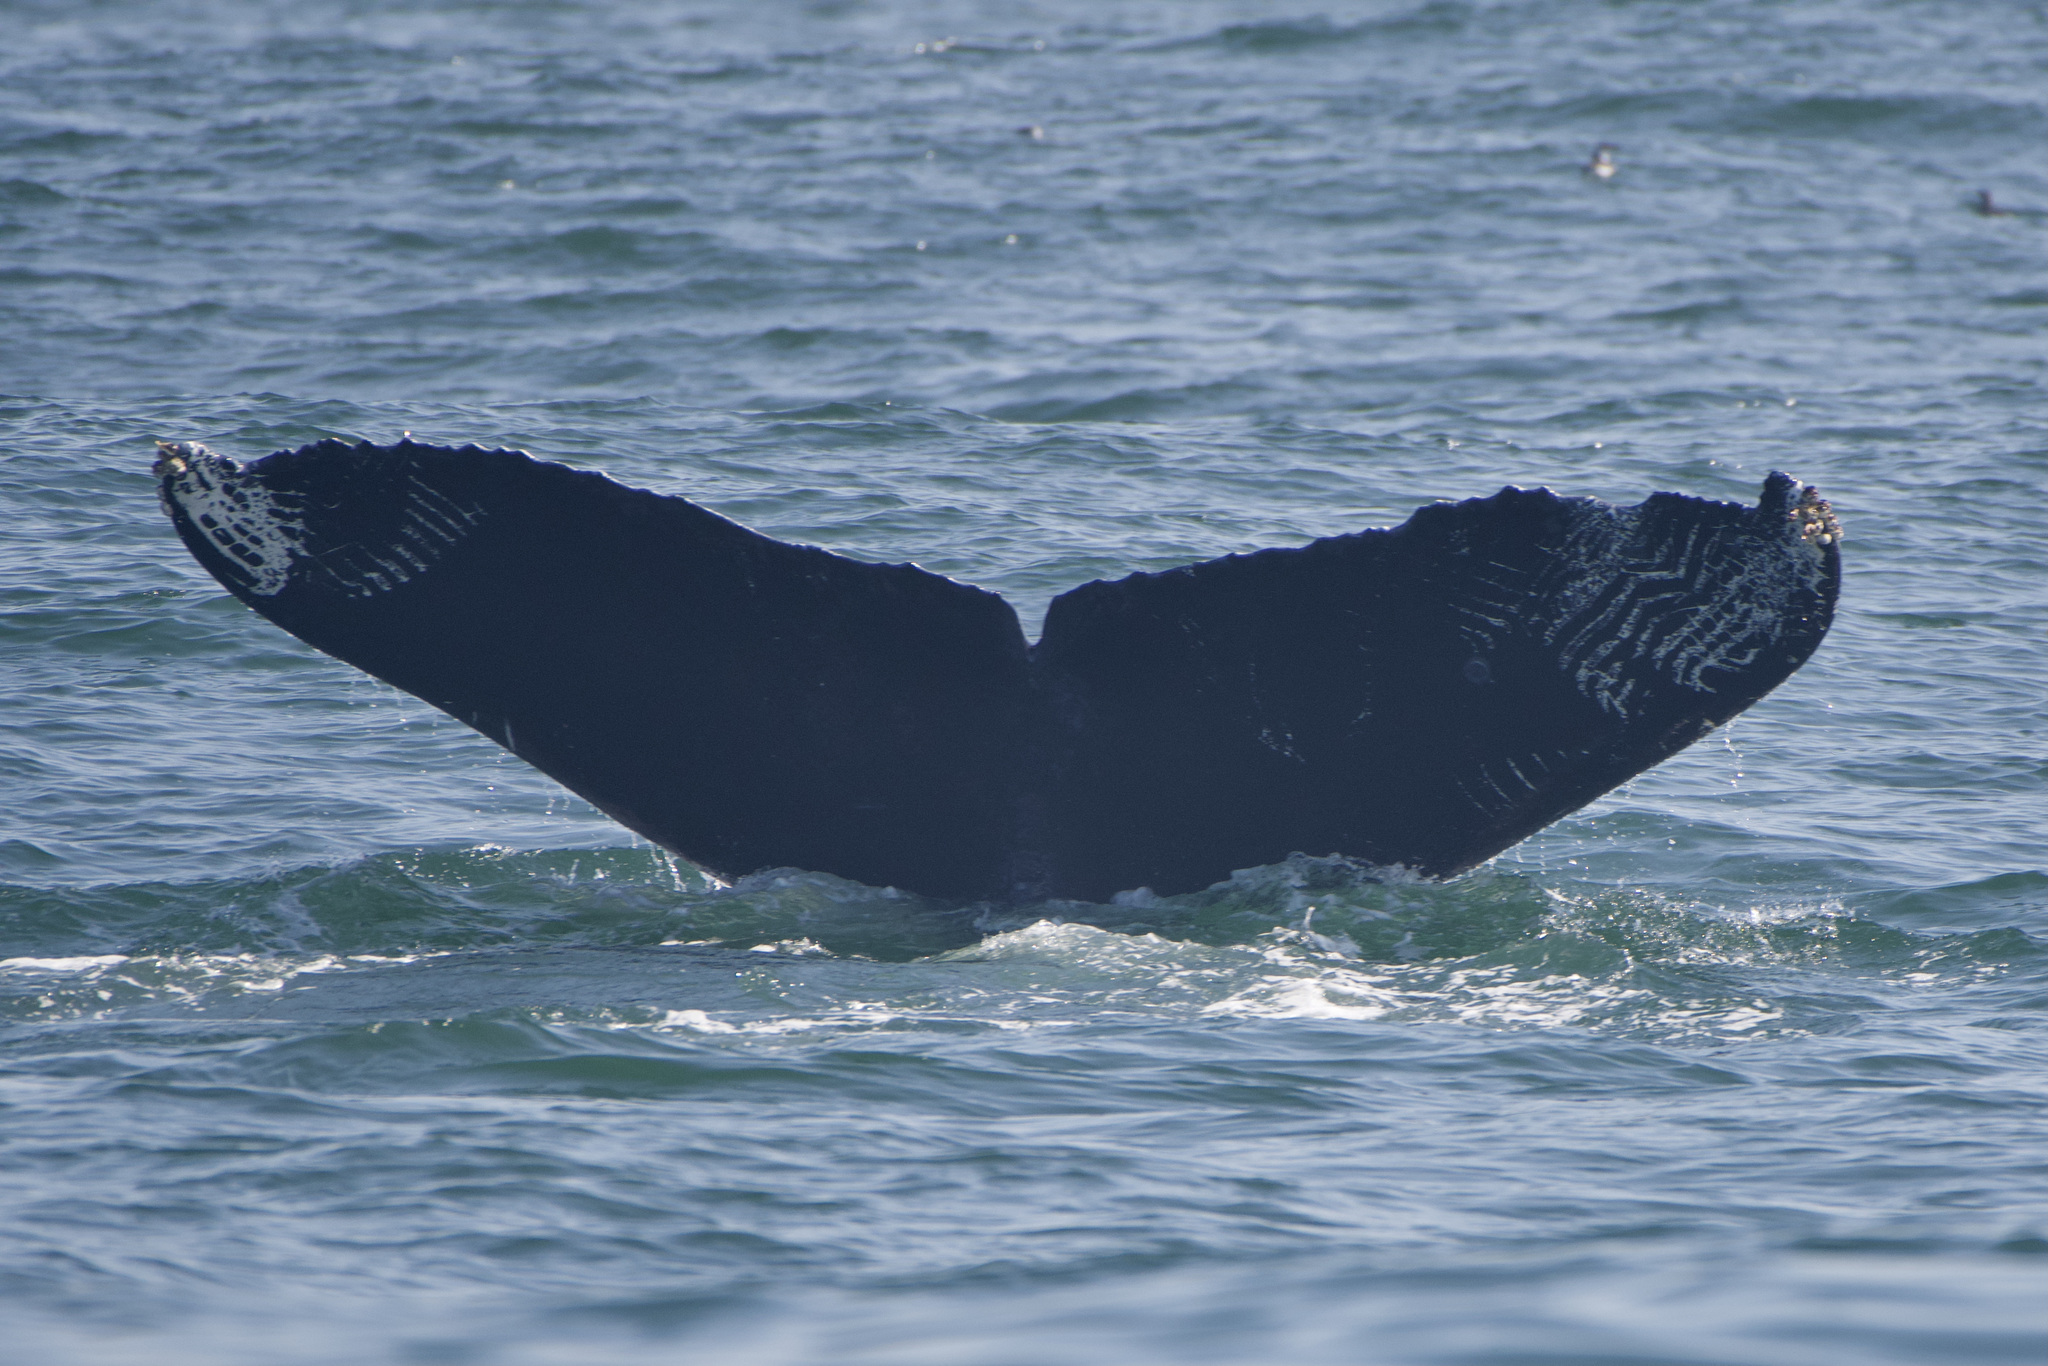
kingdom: Animalia
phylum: Chordata
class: Mammalia
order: Cetacea
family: Balaenopteridae
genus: Megaptera
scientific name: Megaptera novaeangliae
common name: Humpback whale
